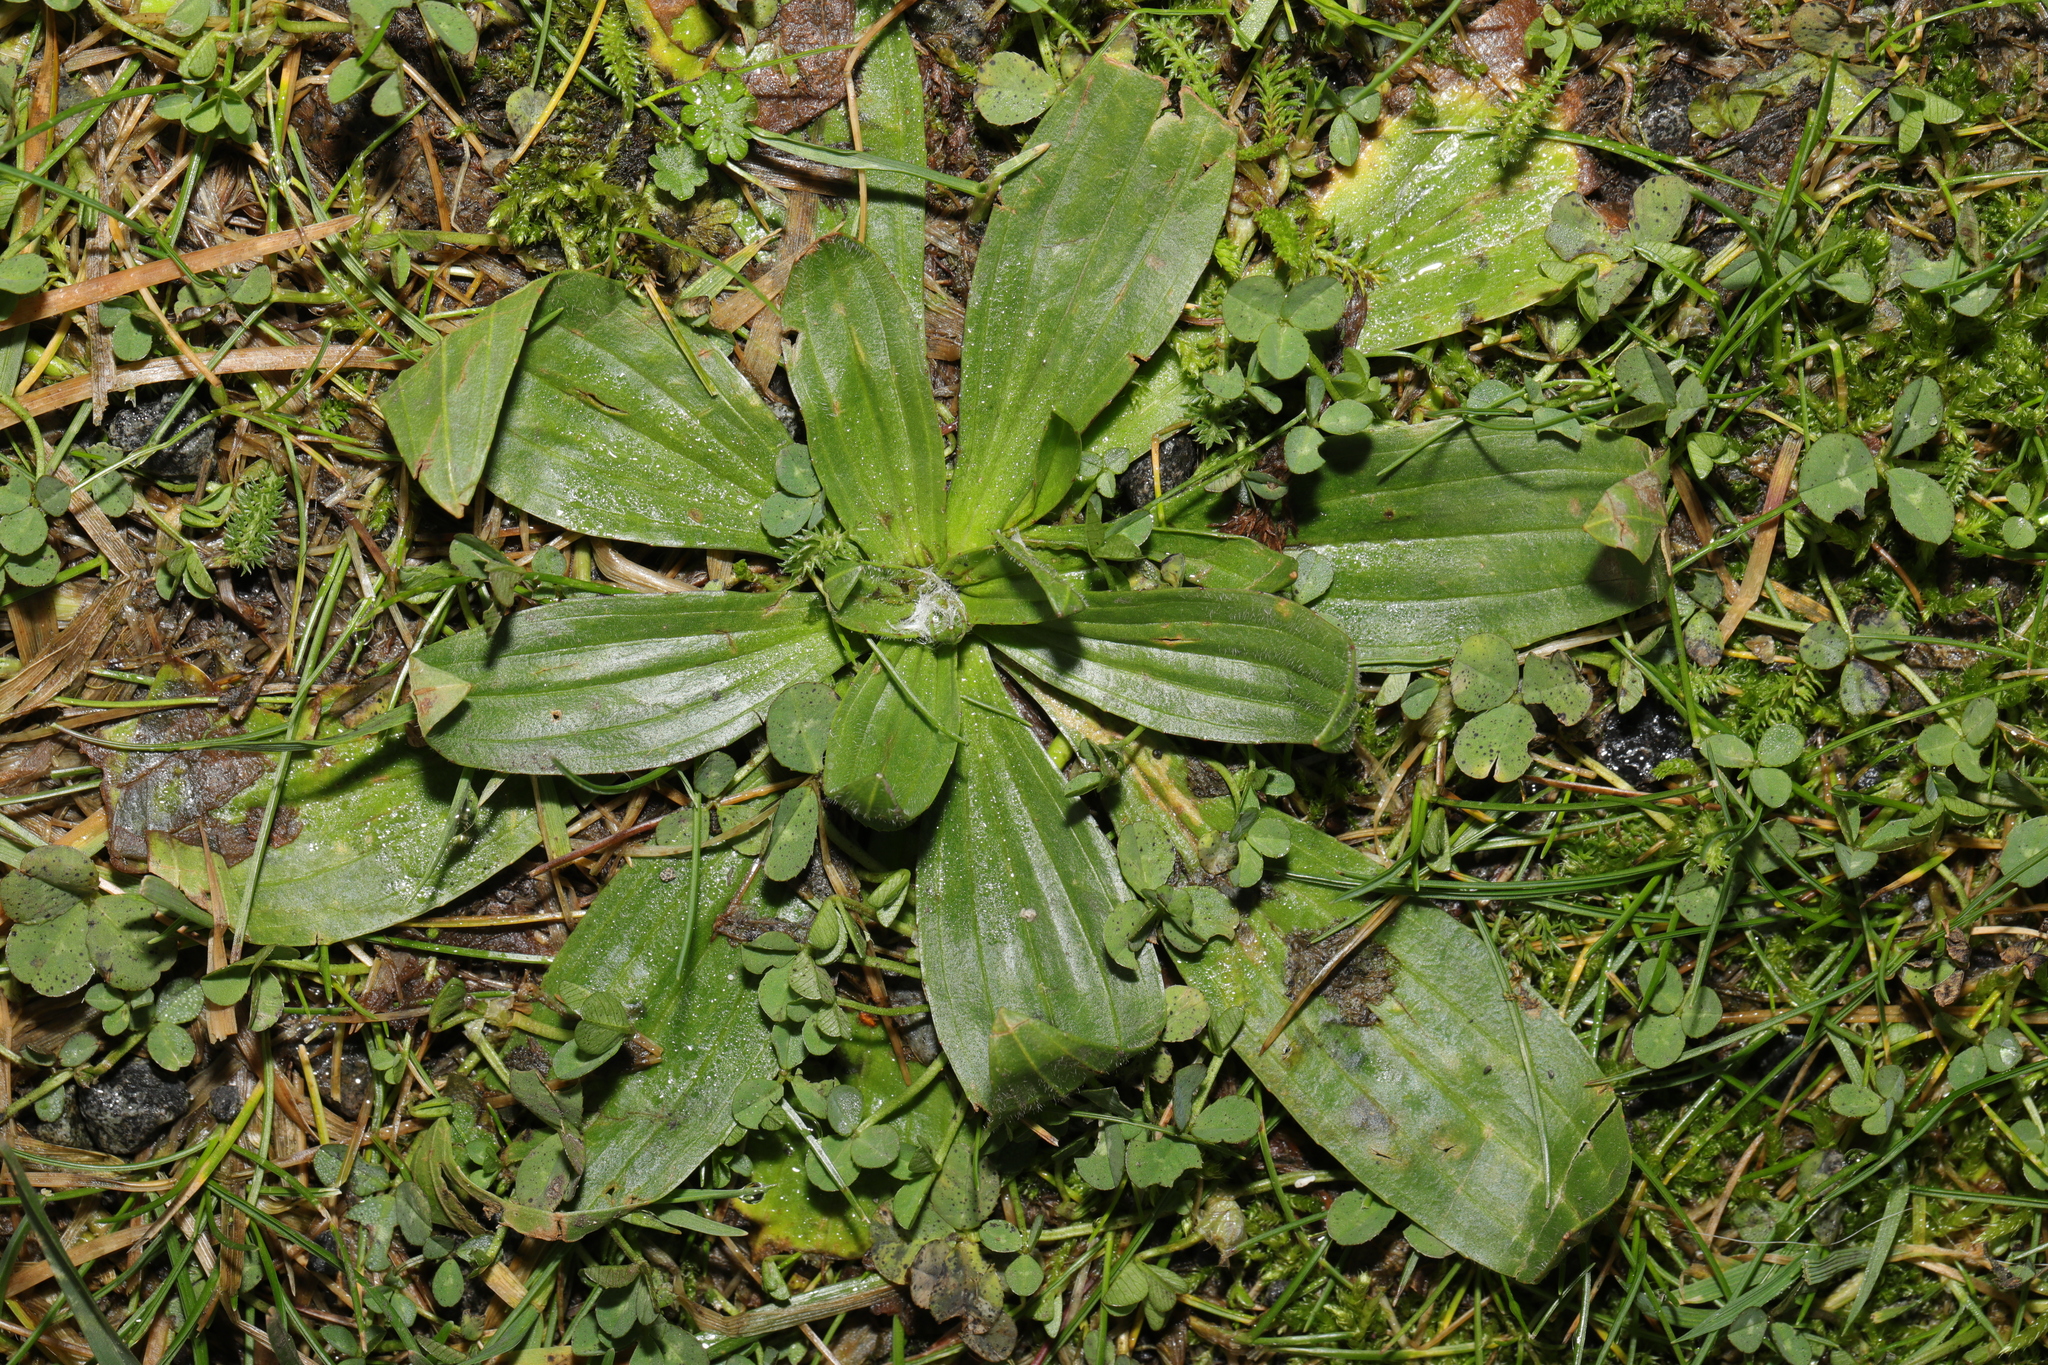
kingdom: Plantae
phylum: Tracheophyta
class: Magnoliopsida
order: Lamiales
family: Plantaginaceae
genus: Plantago
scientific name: Plantago lanceolata
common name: Ribwort plantain
